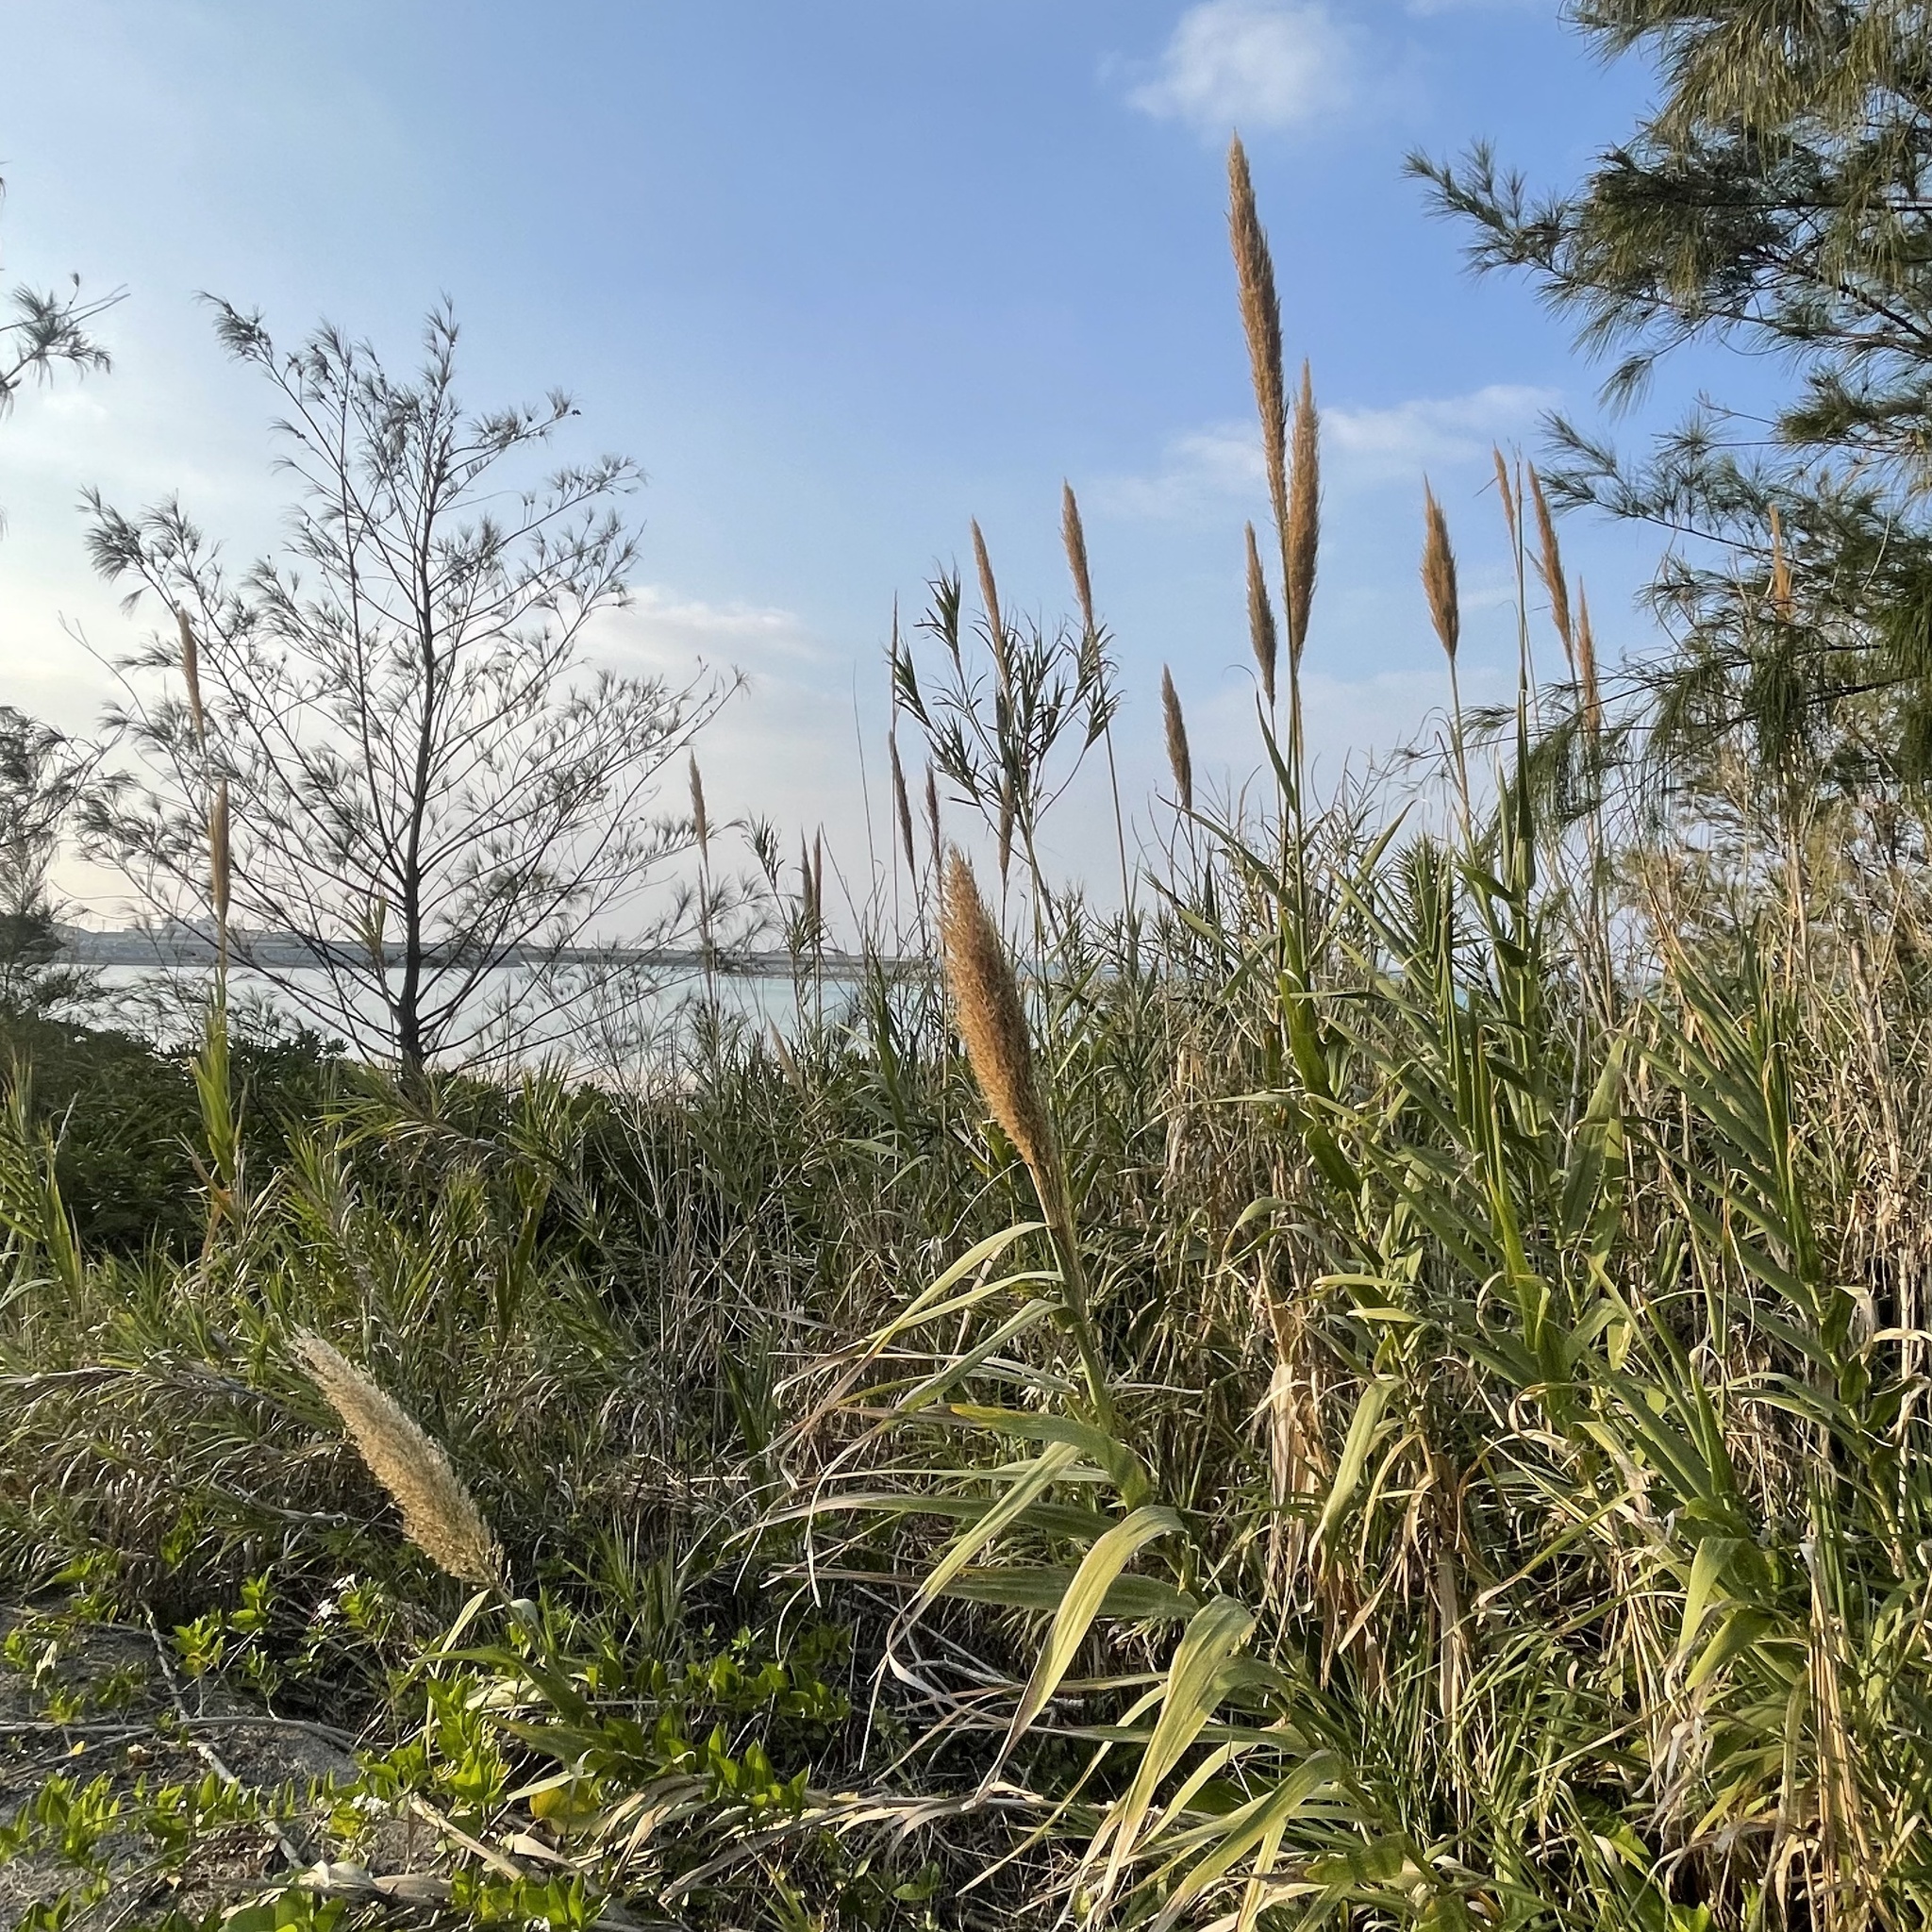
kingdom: Plantae
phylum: Tracheophyta
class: Liliopsida
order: Poales
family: Poaceae
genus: Arundo
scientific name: Arundo donax
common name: Giant reed
